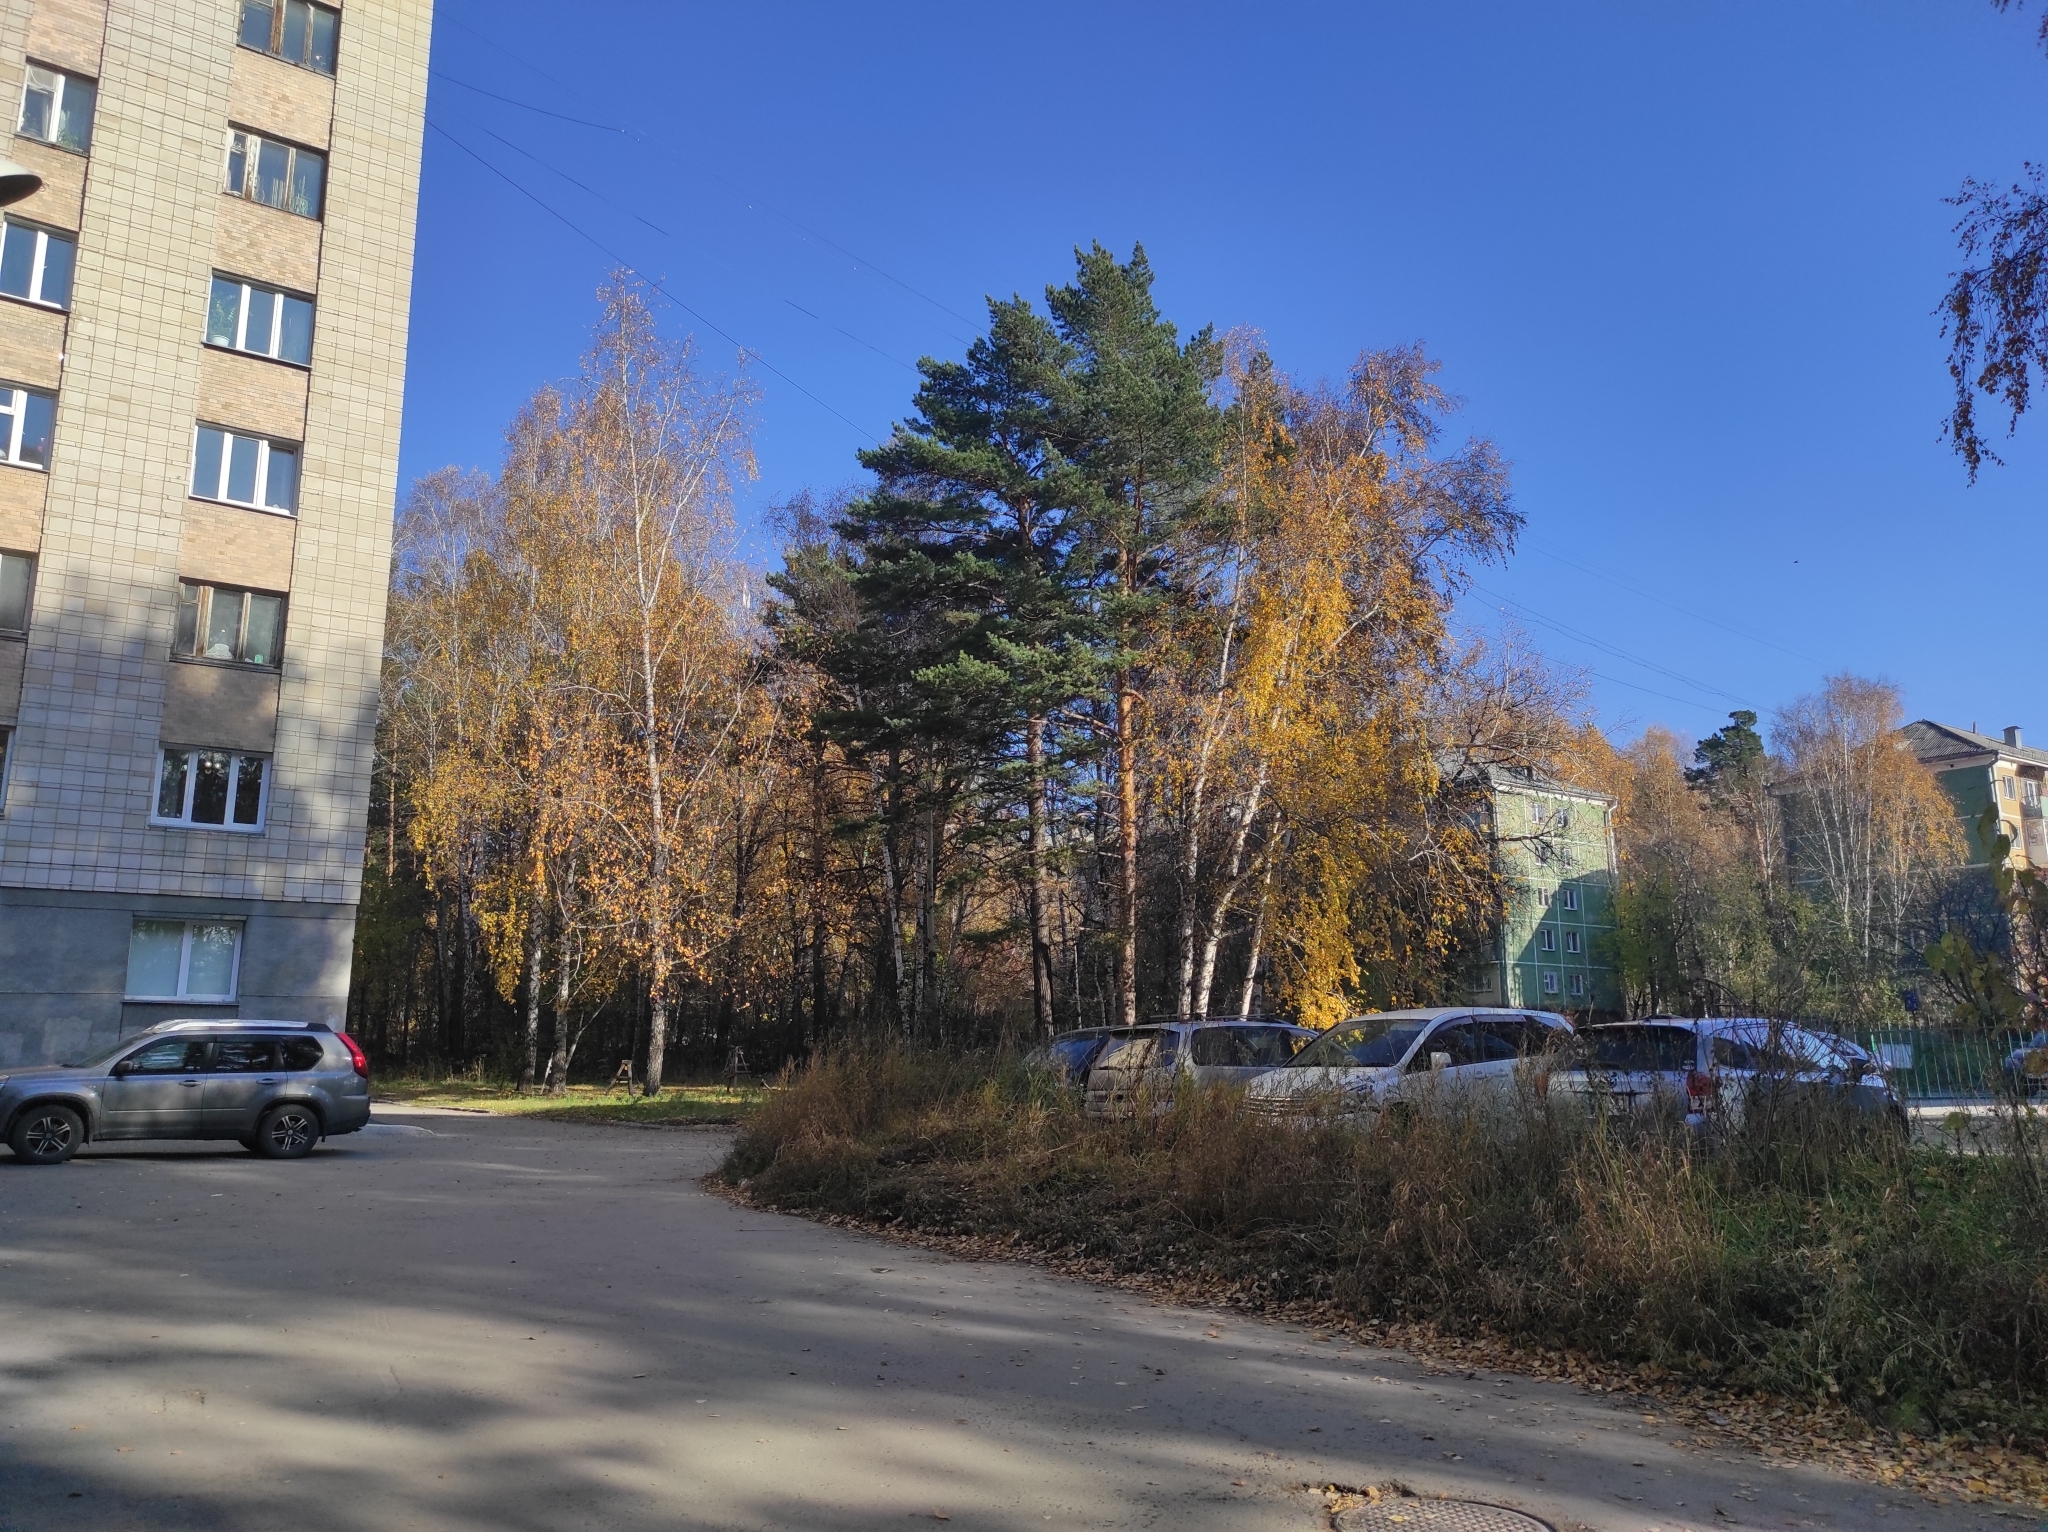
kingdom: Plantae
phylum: Tracheophyta
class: Pinopsida
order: Pinales
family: Pinaceae
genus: Pinus
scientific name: Pinus sylvestris
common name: Scots pine
